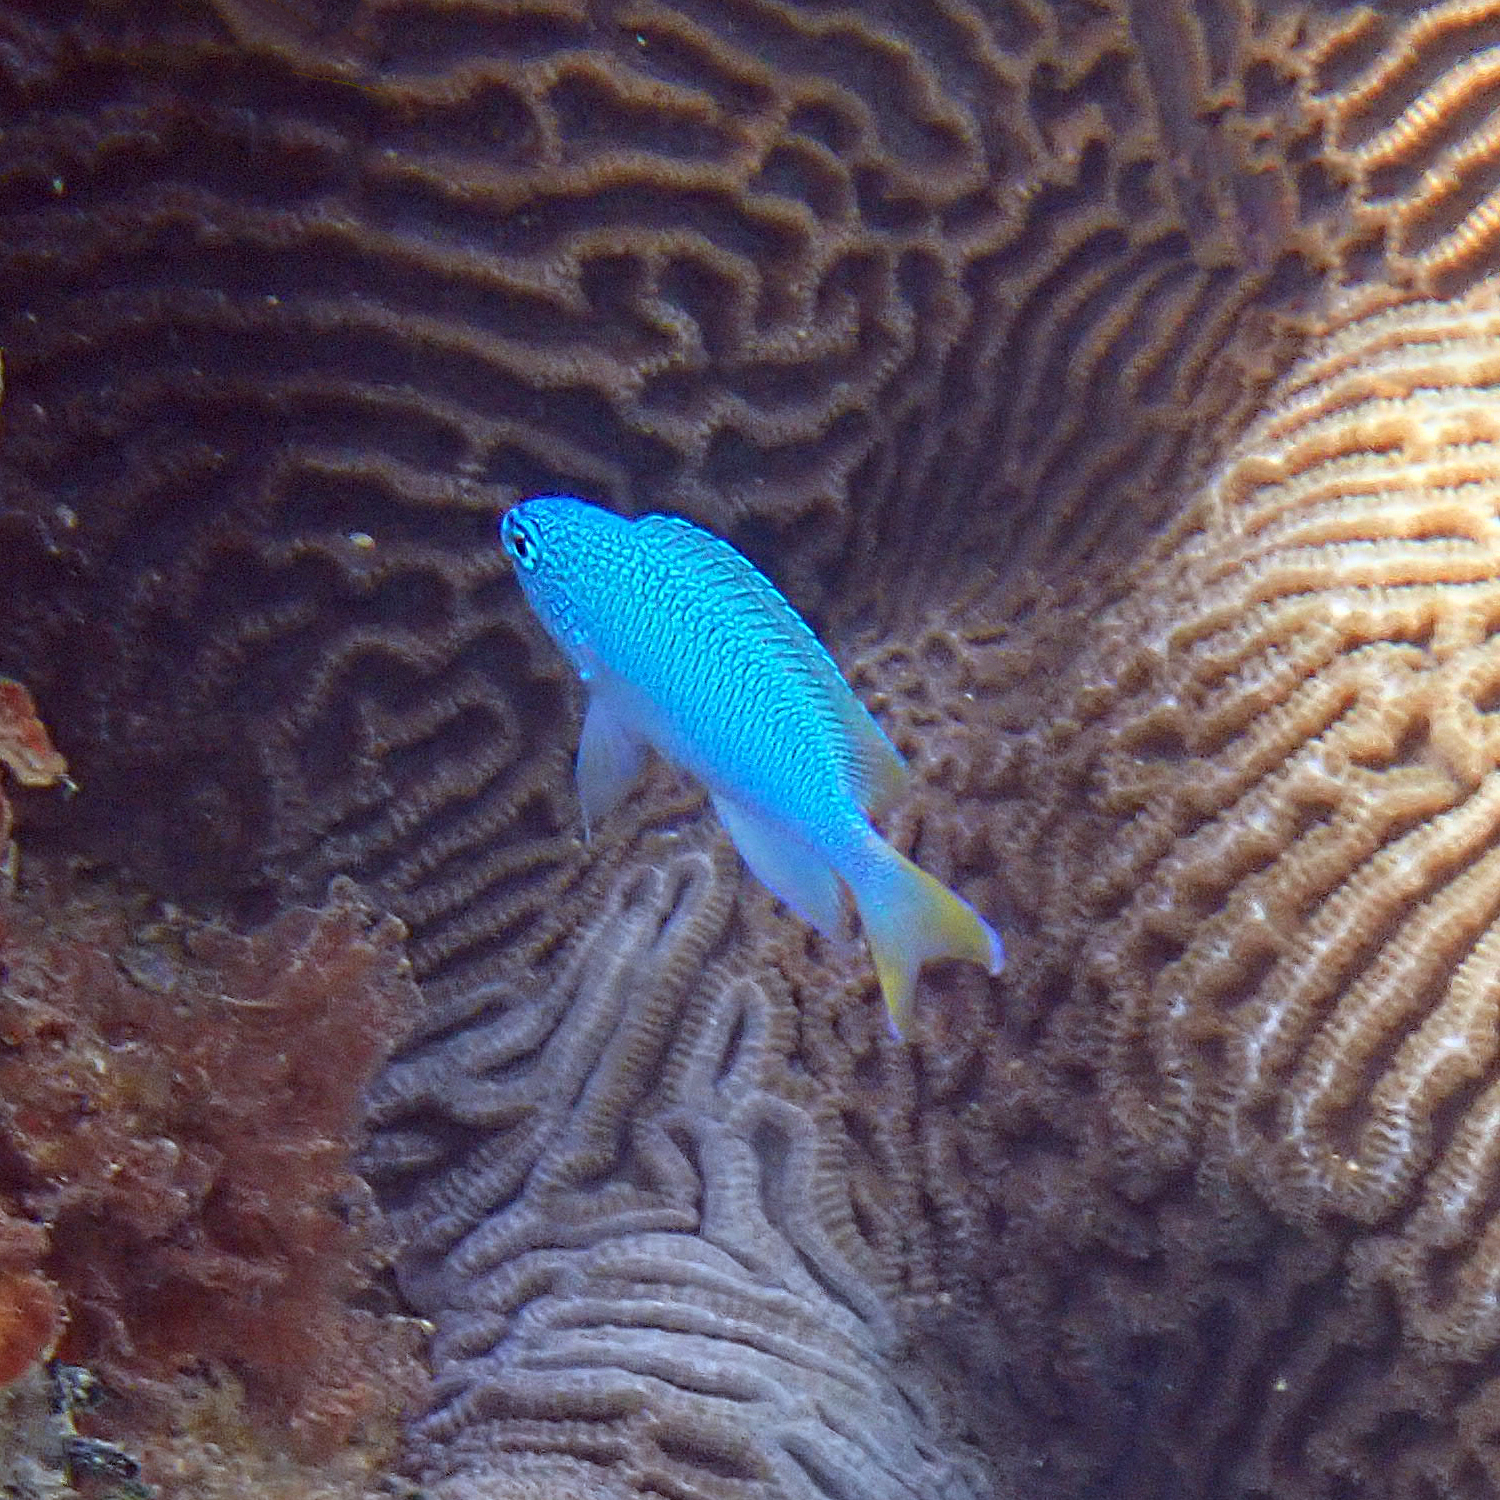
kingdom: Animalia
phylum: Chordata
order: Perciformes
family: Pomacentridae
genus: Pomacentrus
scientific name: Pomacentrus pavo
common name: Sapphire damsel
